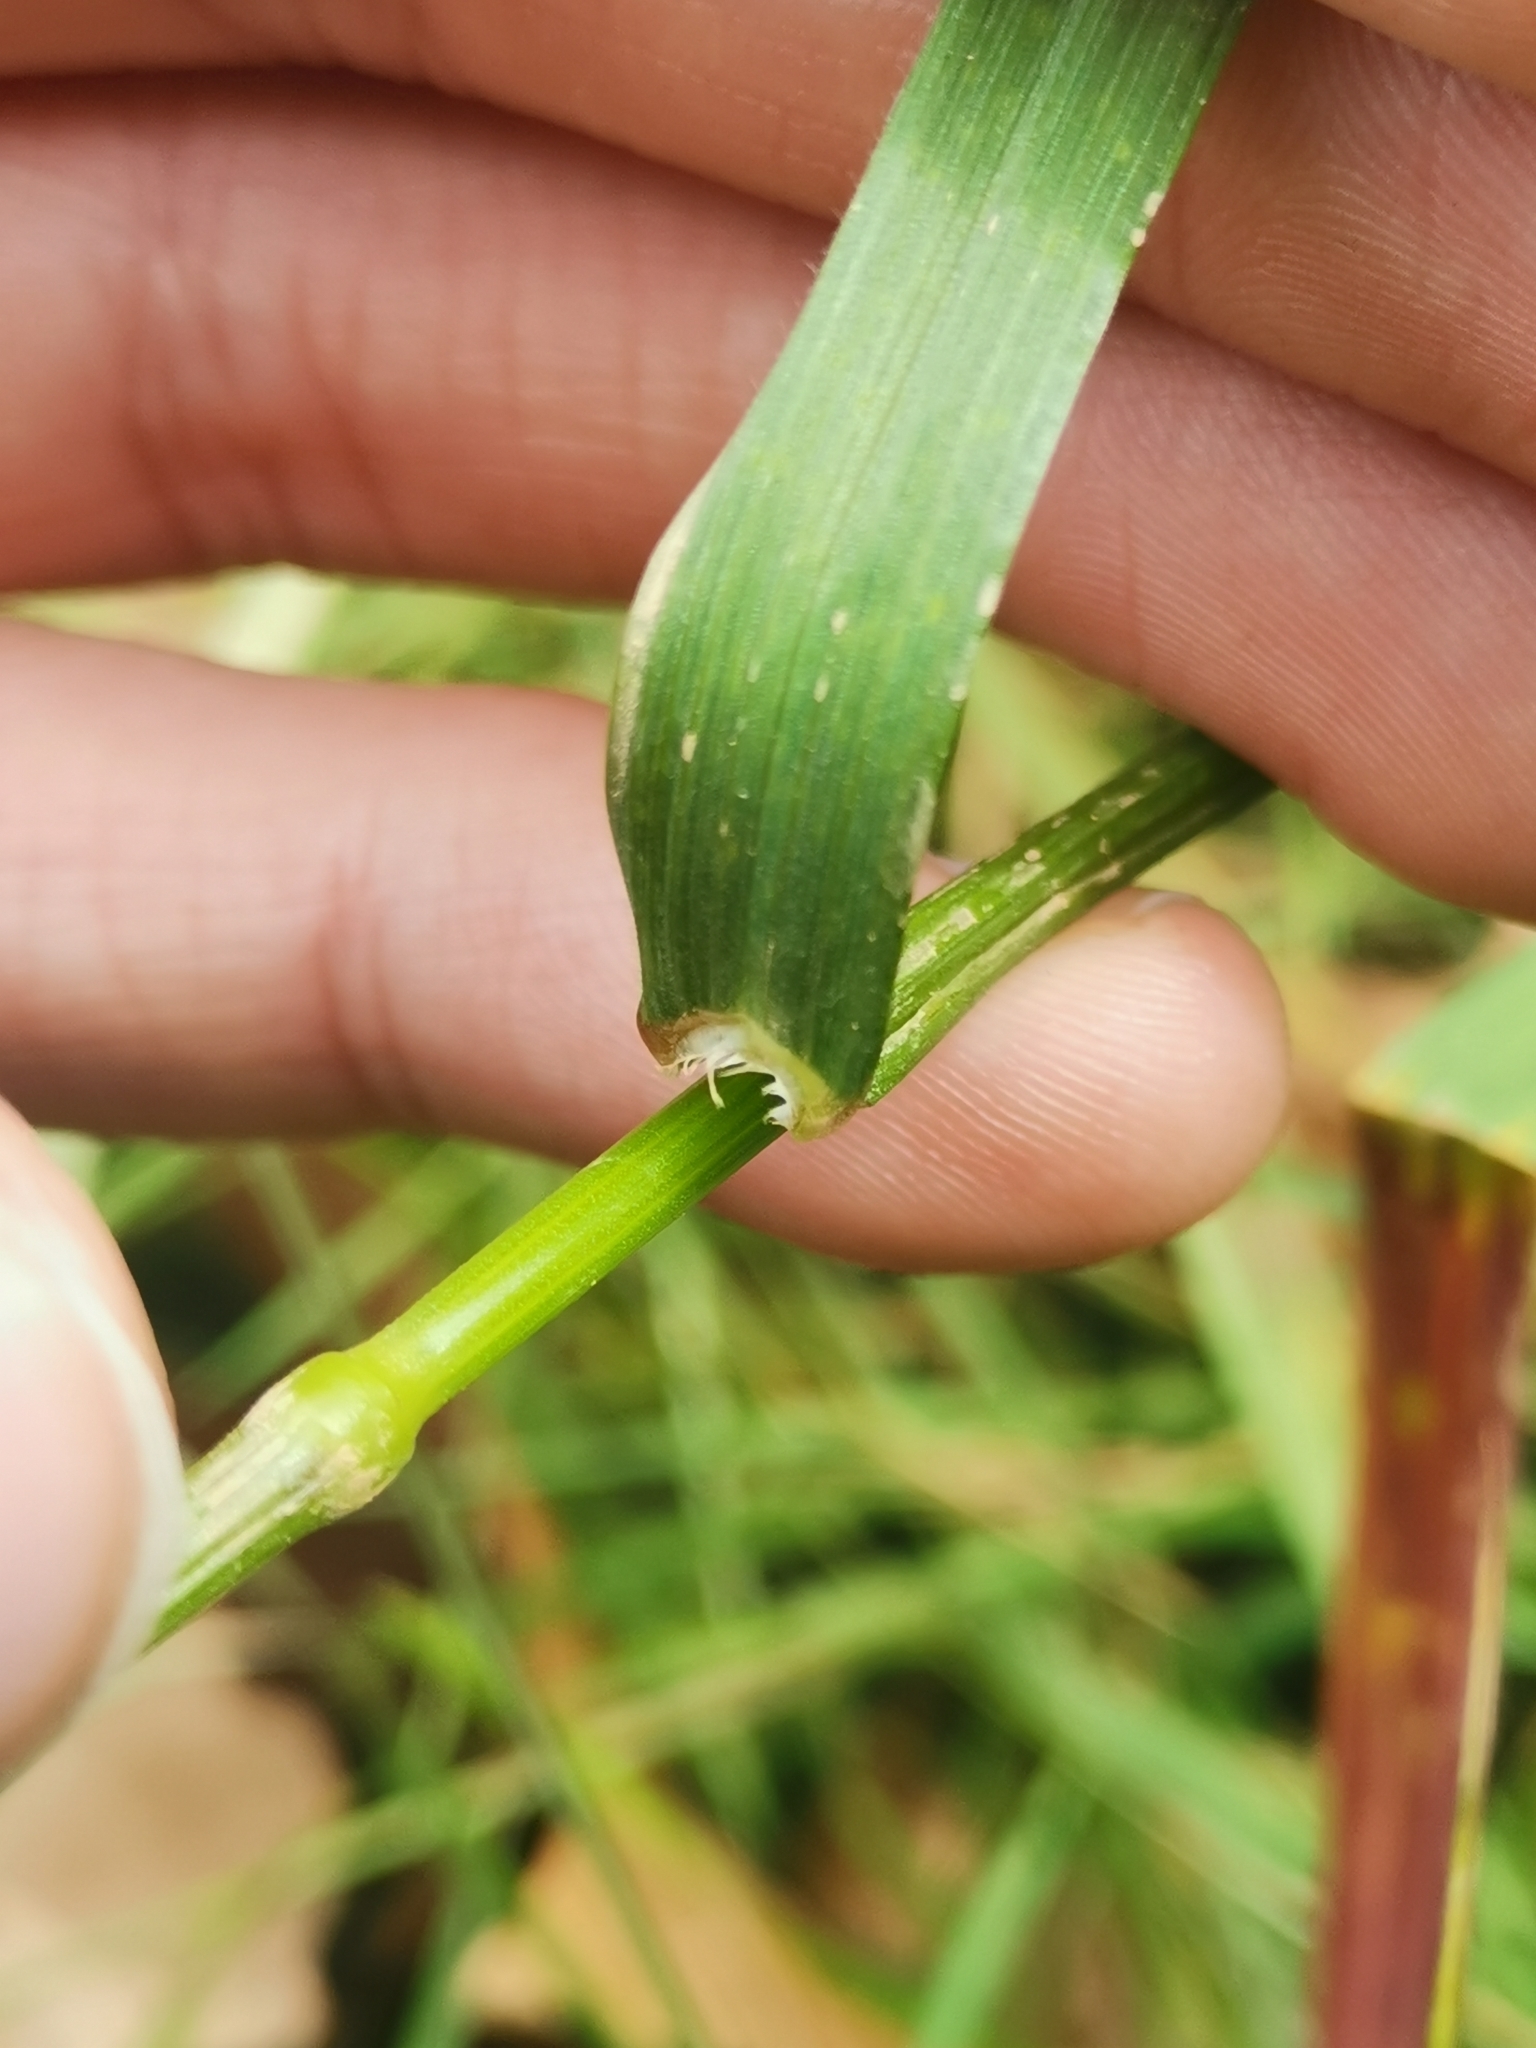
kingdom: Plantae
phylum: Tracheophyta
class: Liliopsida
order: Poales
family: Poaceae
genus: Bromus
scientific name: Bromus sterilis
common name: Poverty brome
